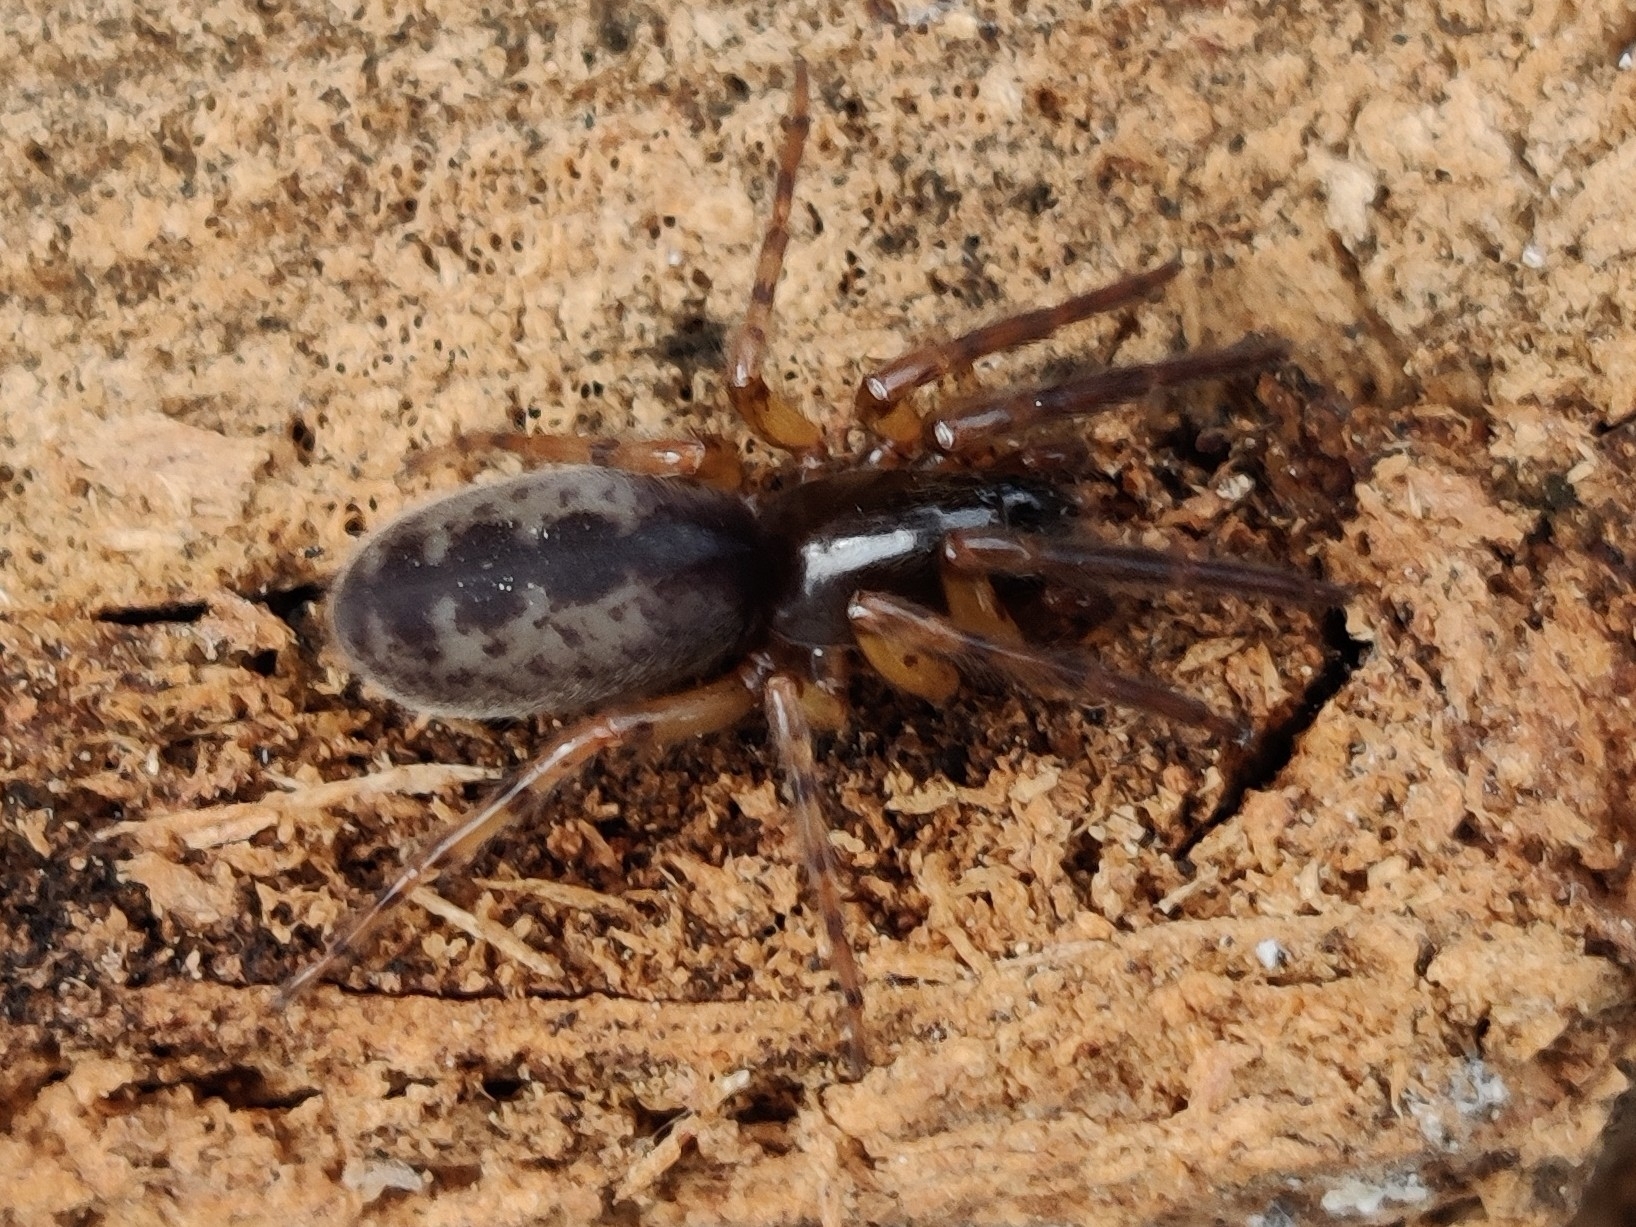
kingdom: Animalia
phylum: Arthropoda
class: Arachnida
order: Araneae
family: Segestriidae
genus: Segestria
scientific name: Segestria senoculata
